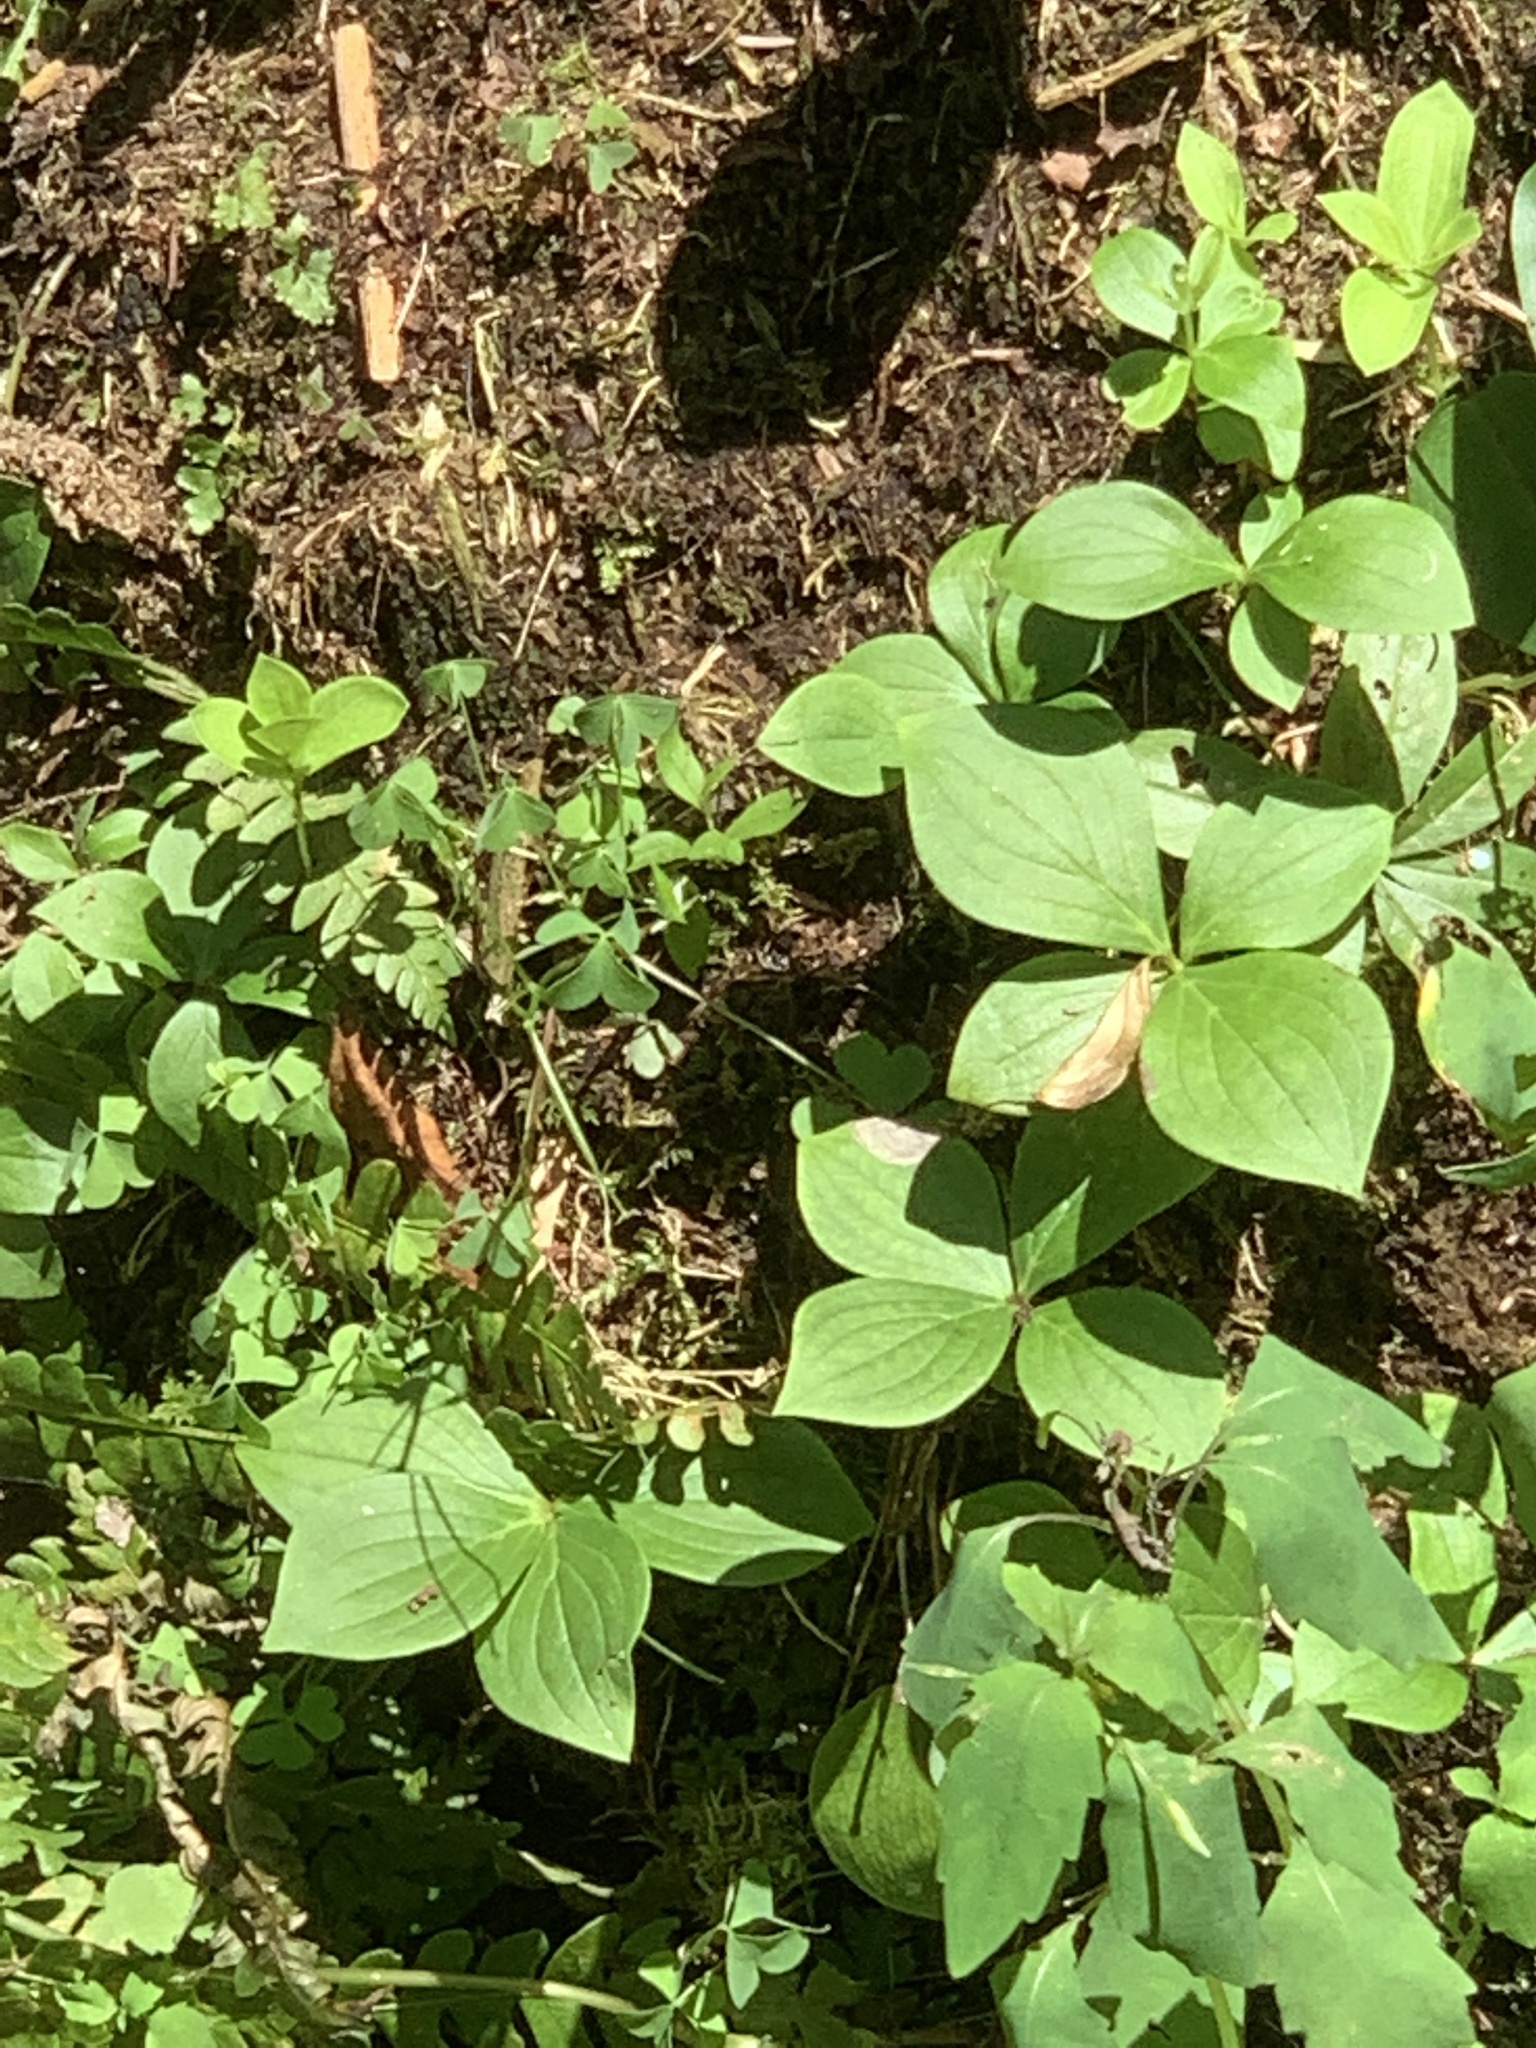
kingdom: Plantae
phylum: Tracheophyta
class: Magnoliopsida
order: Cornales
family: Cornaceae
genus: Cornus
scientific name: Cornus canadensis
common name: Creeping dogwood
